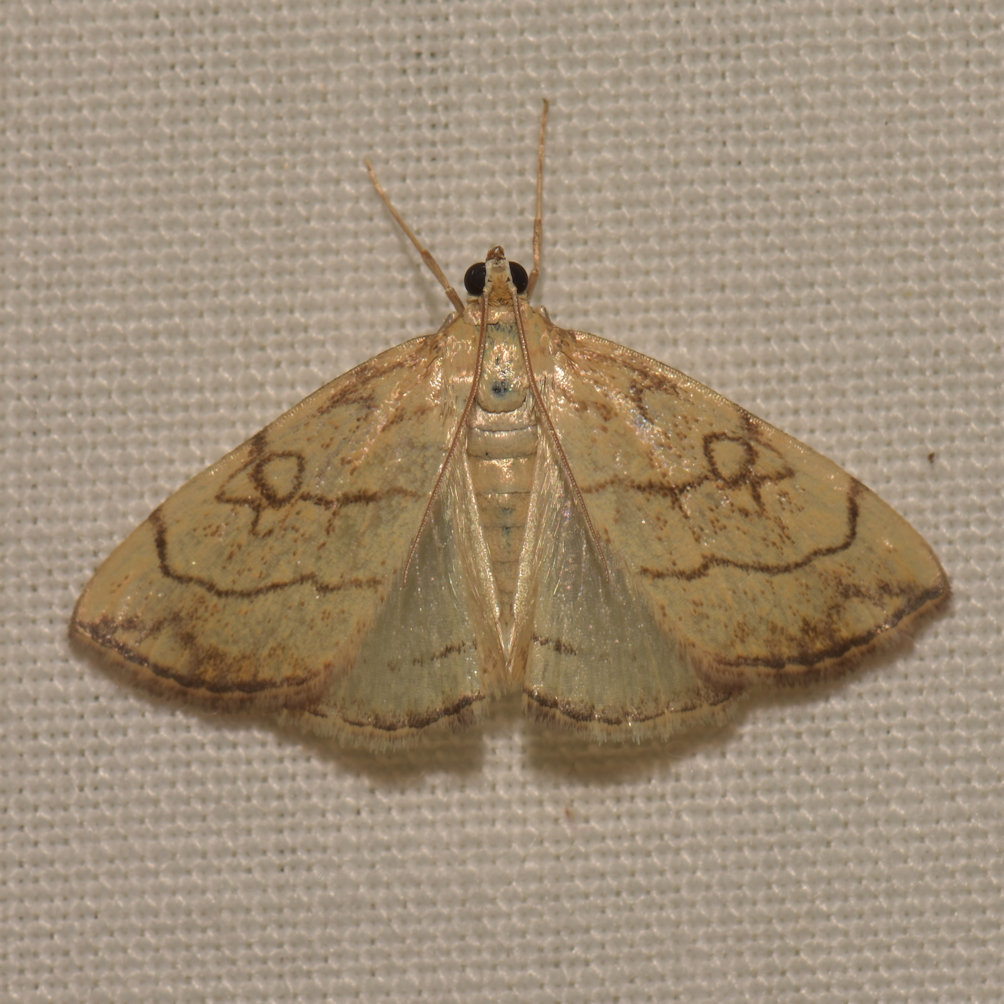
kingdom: Animalia
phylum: Arthropoda
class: Insecta
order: Lepidoptera
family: Crambidae
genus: Evergestis
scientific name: Evergestis pallidata
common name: Chequered pearl
